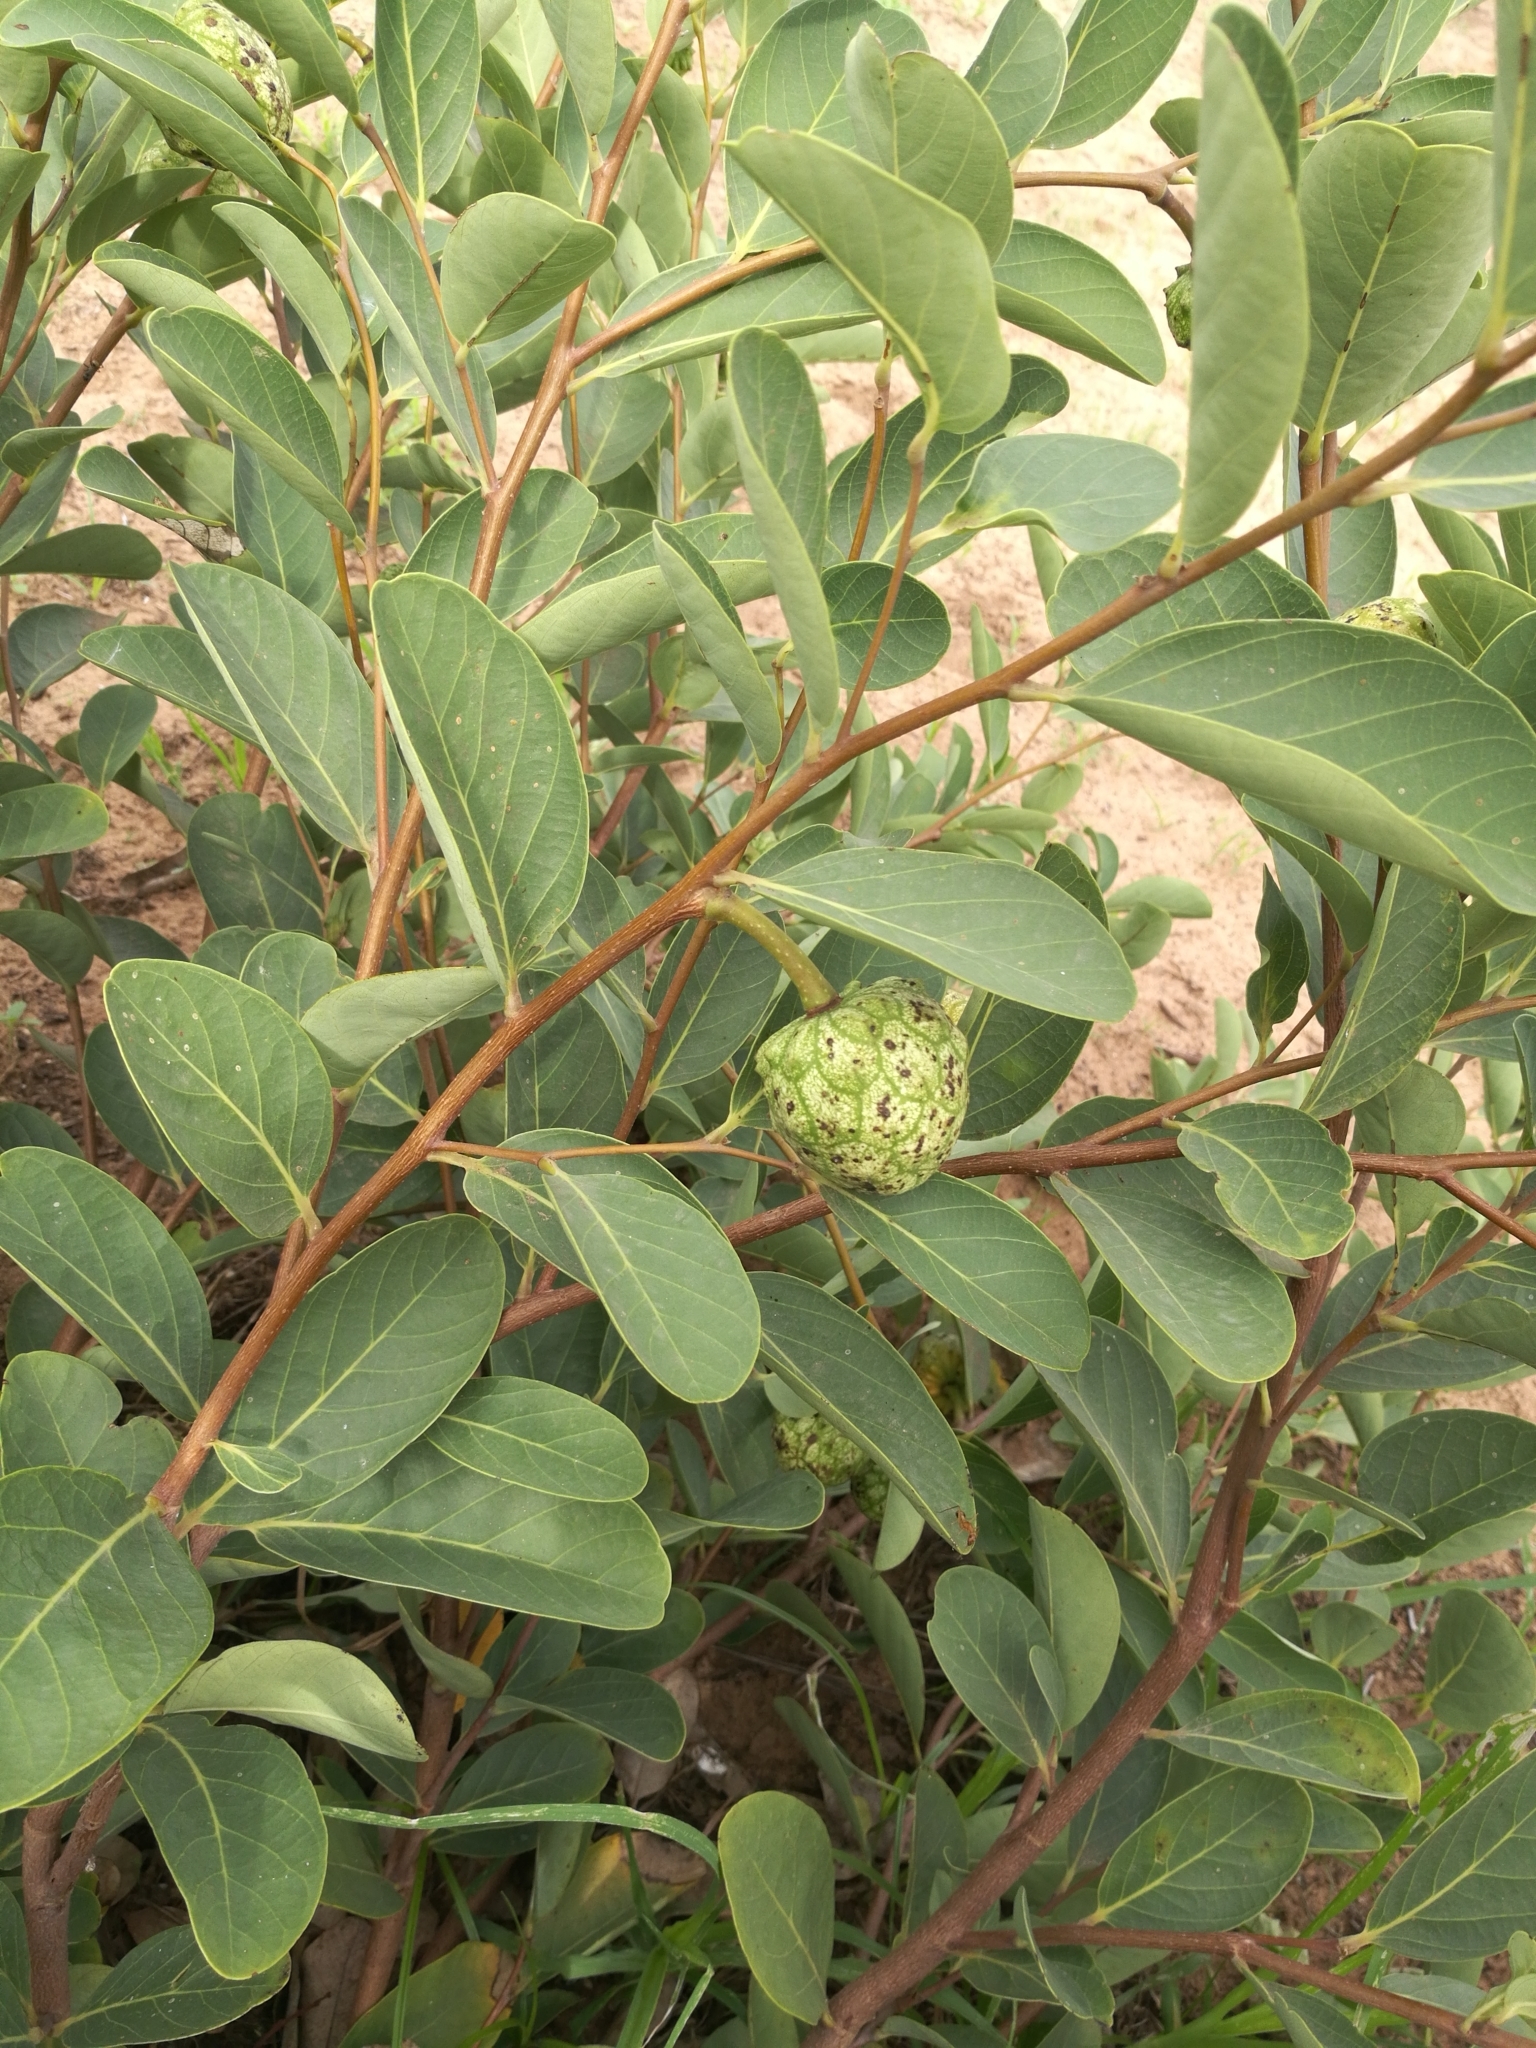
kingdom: Plantae
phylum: Tracheophyta
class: Magnoliopsida
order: Magnoliales
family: Annonaceae
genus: Annona
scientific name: Annona senegalensis
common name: Wild custard-apple
